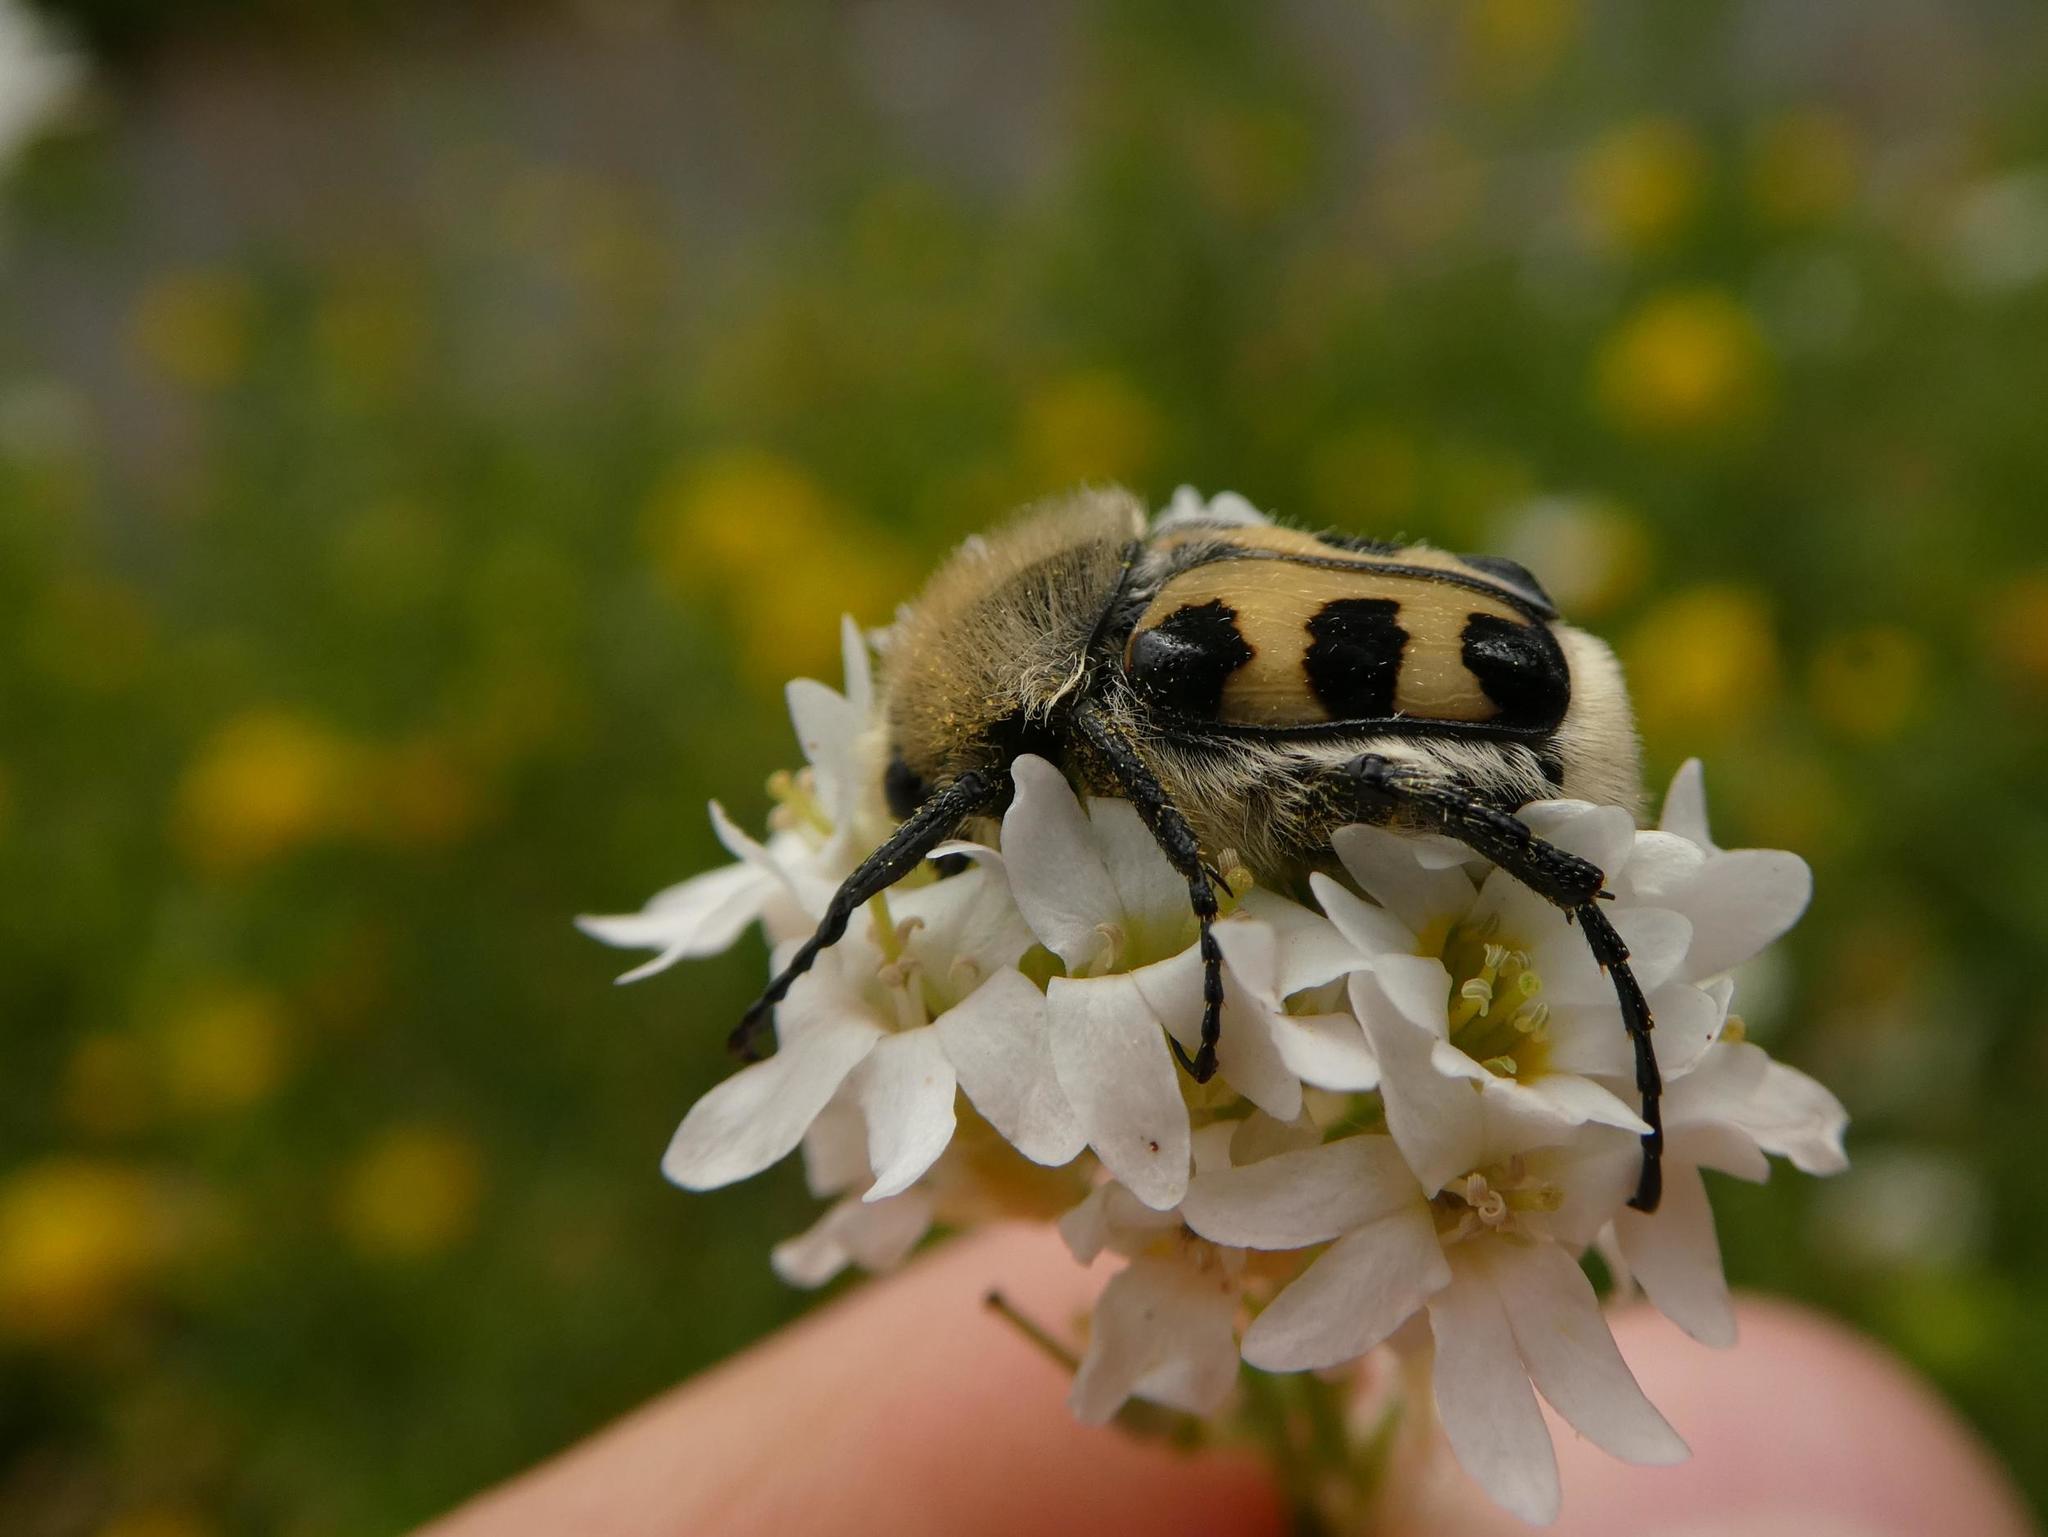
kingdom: Animalia
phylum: Arthropoda
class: Insecta
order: Coleoptera
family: Scarabaeidae
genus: Trichius
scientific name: Trichius gallicus
